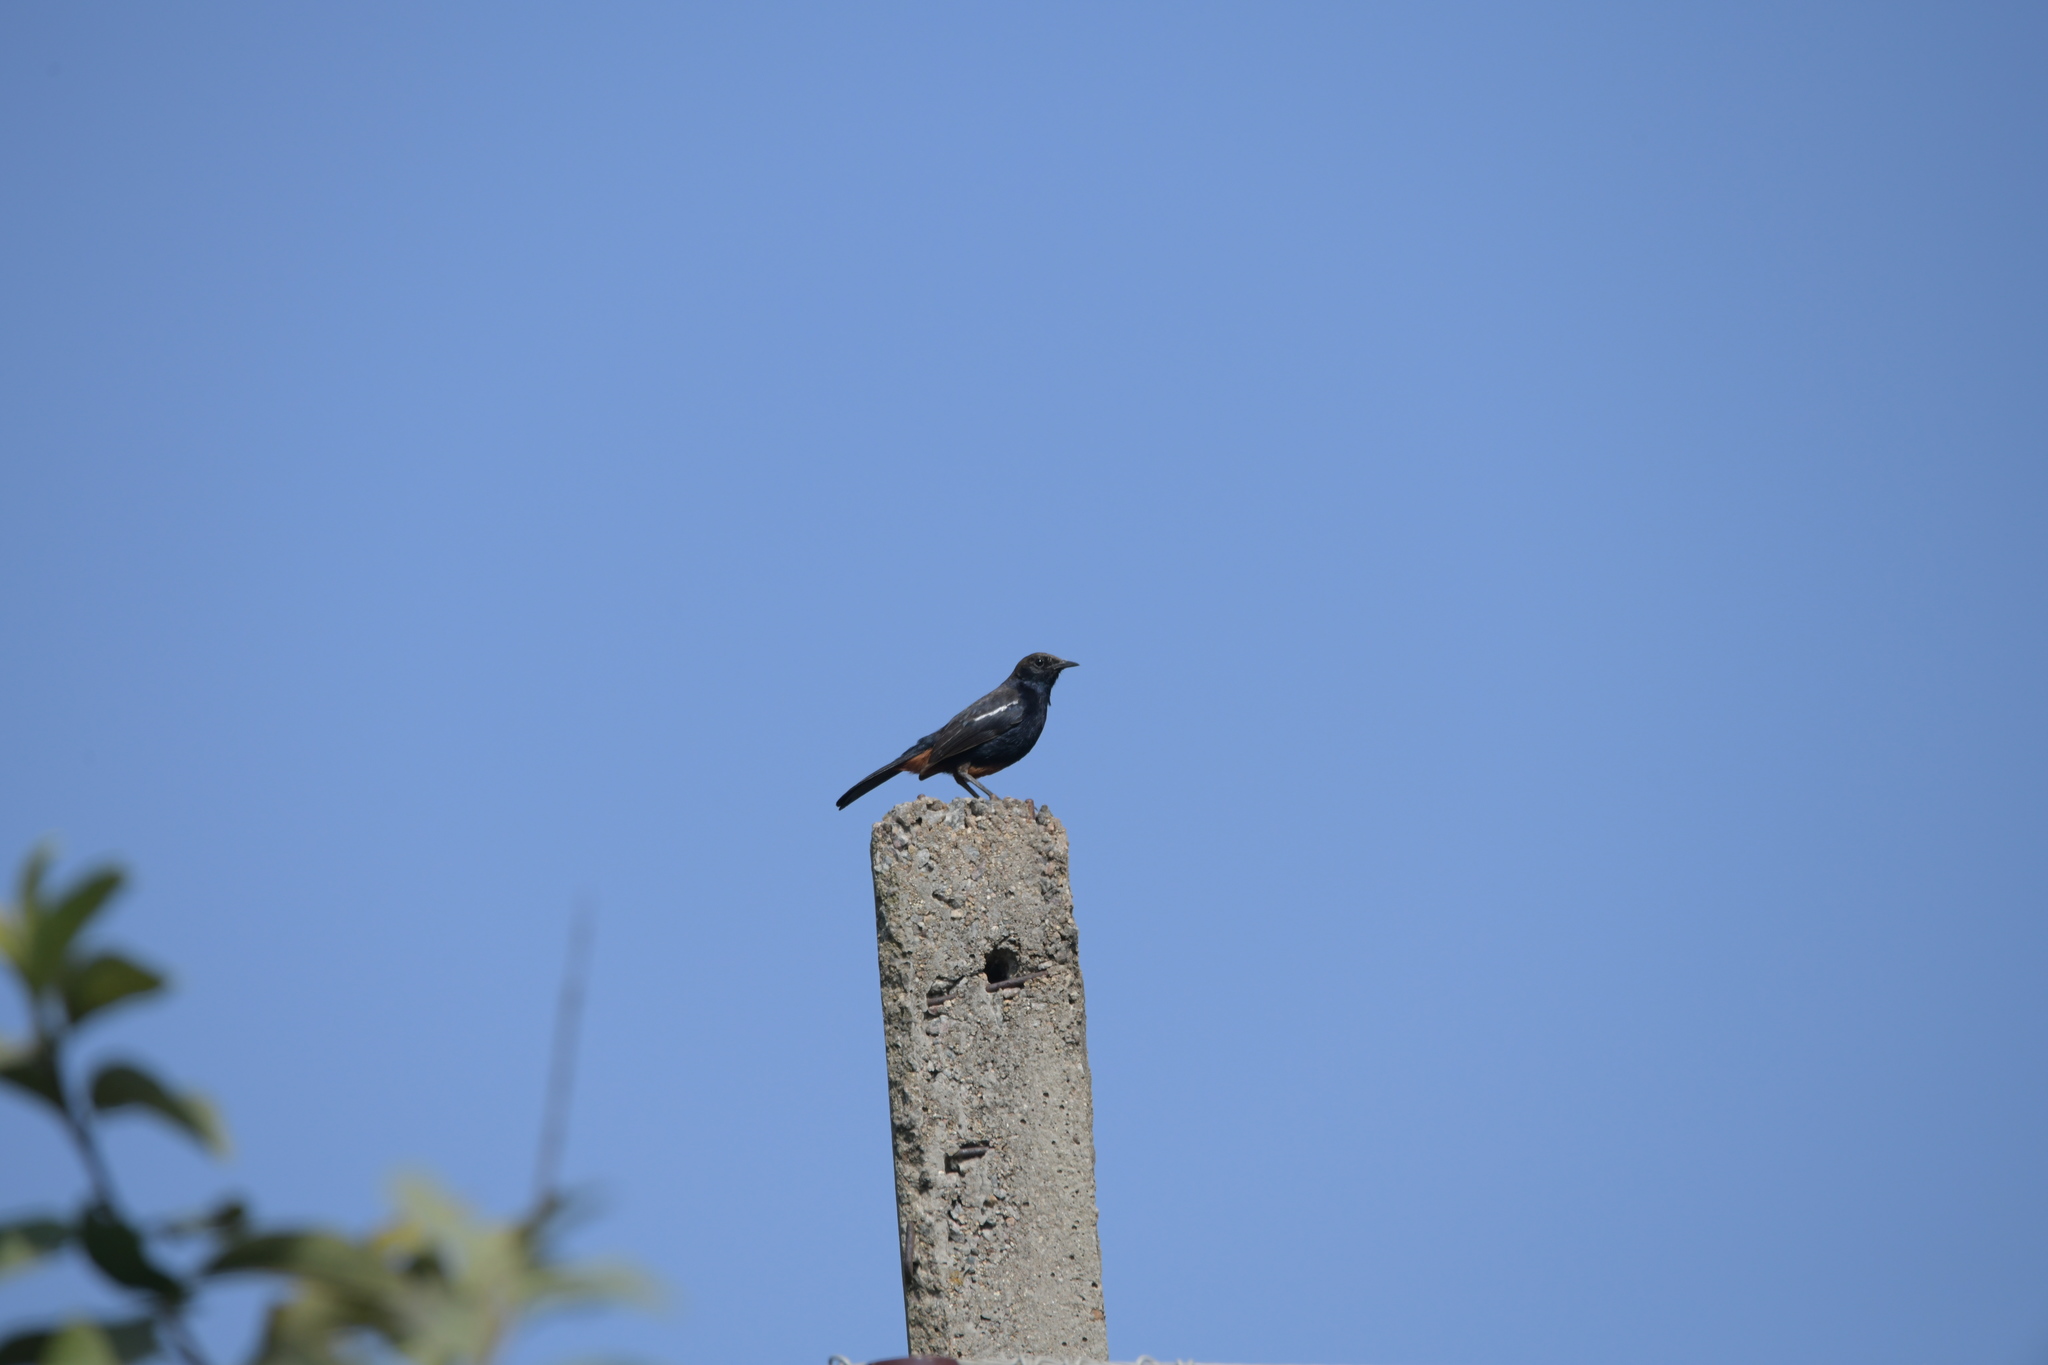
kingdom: Animalia
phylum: Chordata
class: Aves
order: Passeriformes
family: Muscicapidae
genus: Saxicoloides
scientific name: Saxicoloides fulicatus
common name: Indian robin
